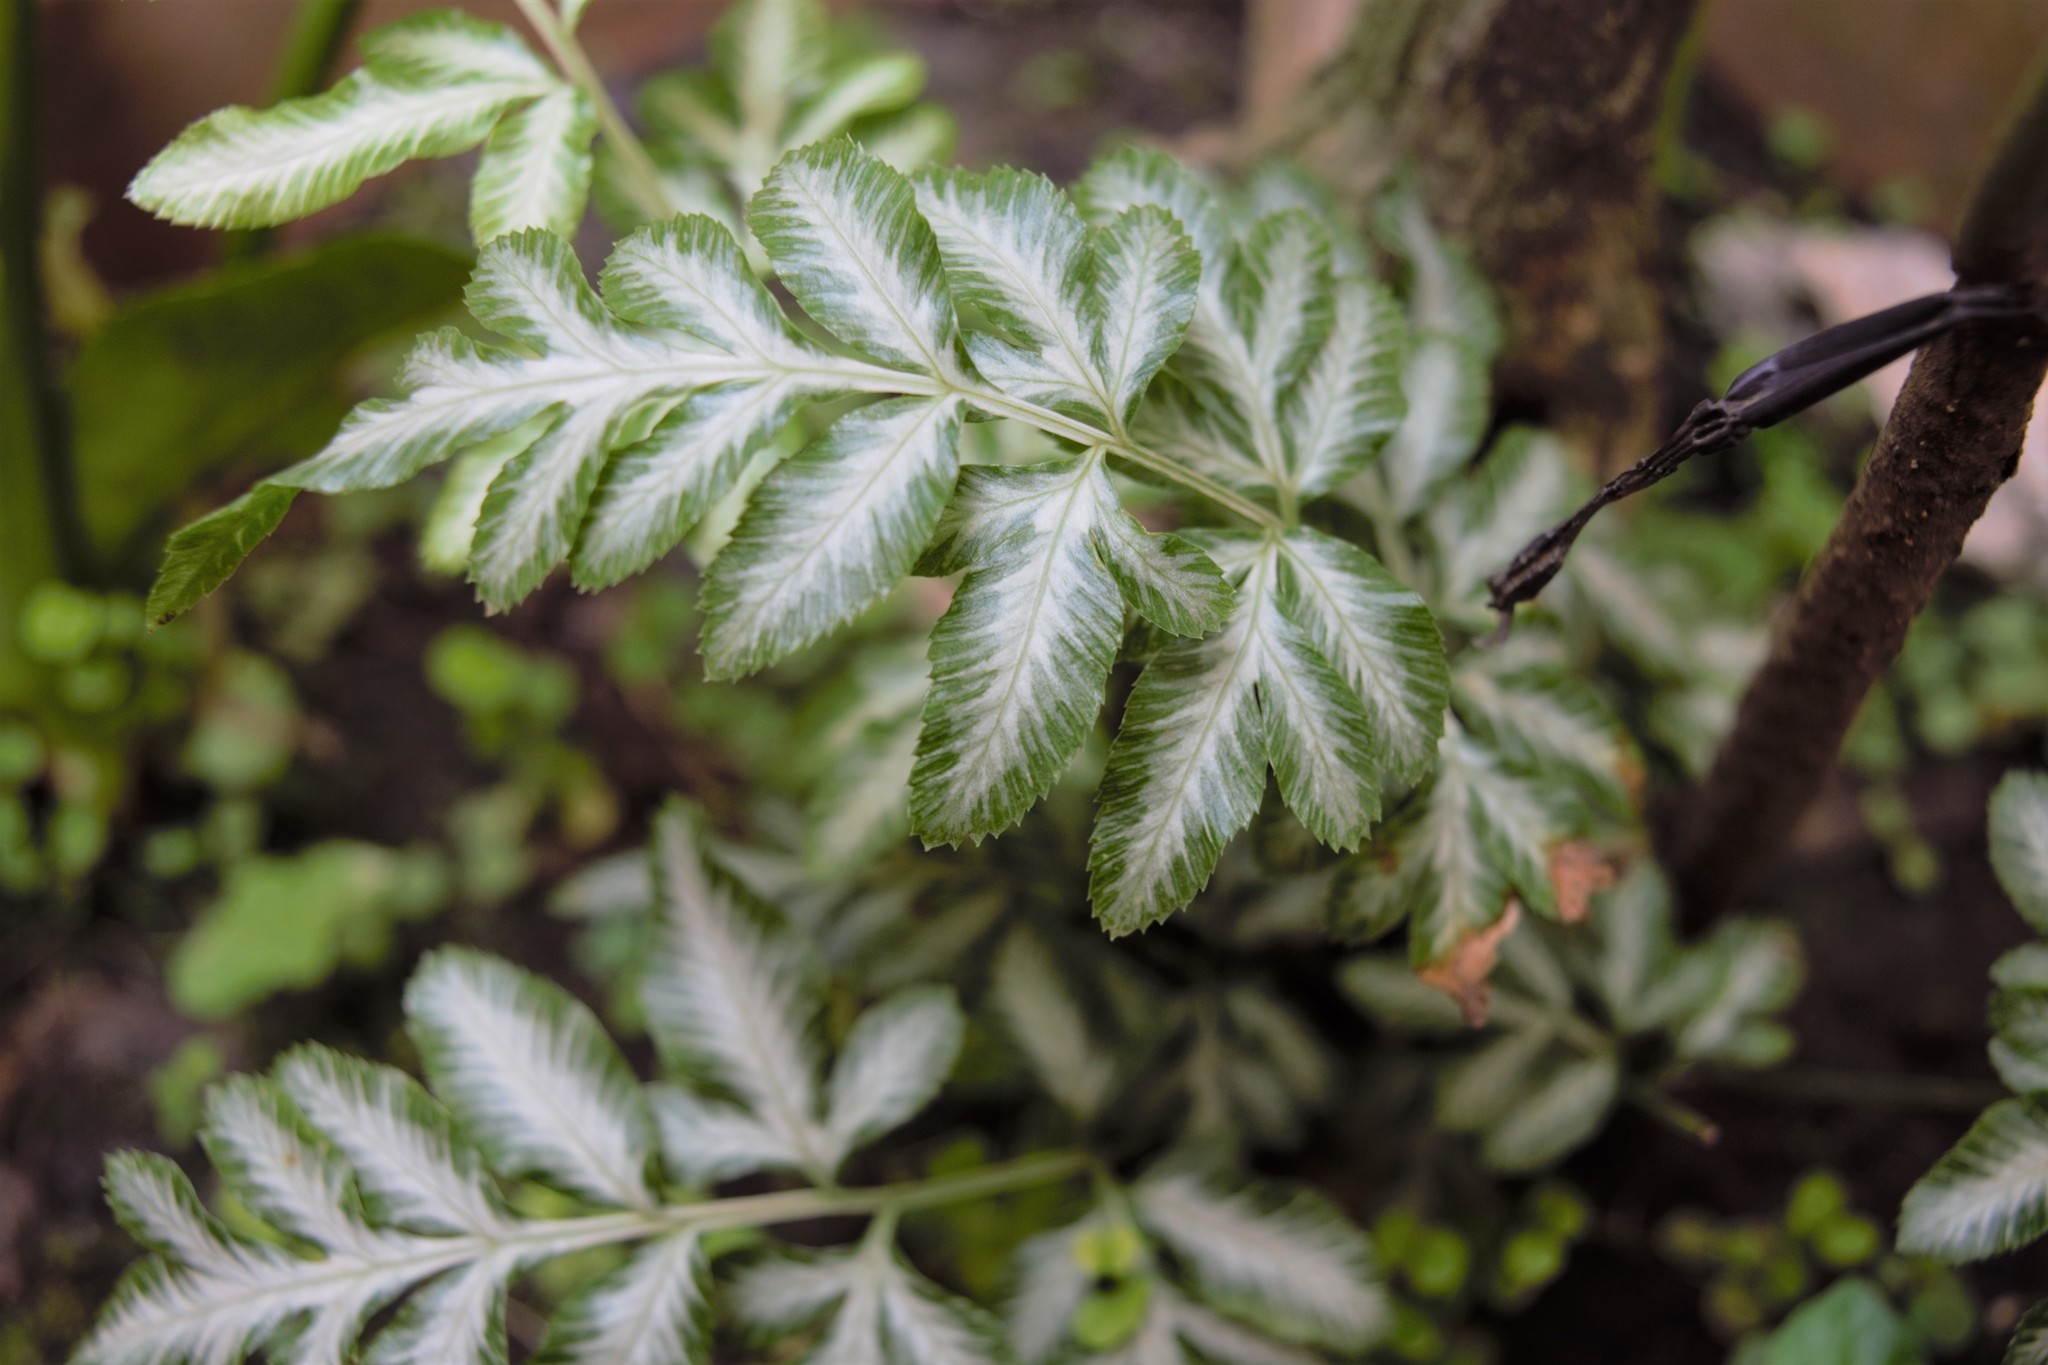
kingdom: Plantae
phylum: Tracheophyta
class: Polypodiopsida
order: Polypodiales
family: Pteridaceae
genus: Pteris
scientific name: Pteris ensiformis
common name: Sword brake
